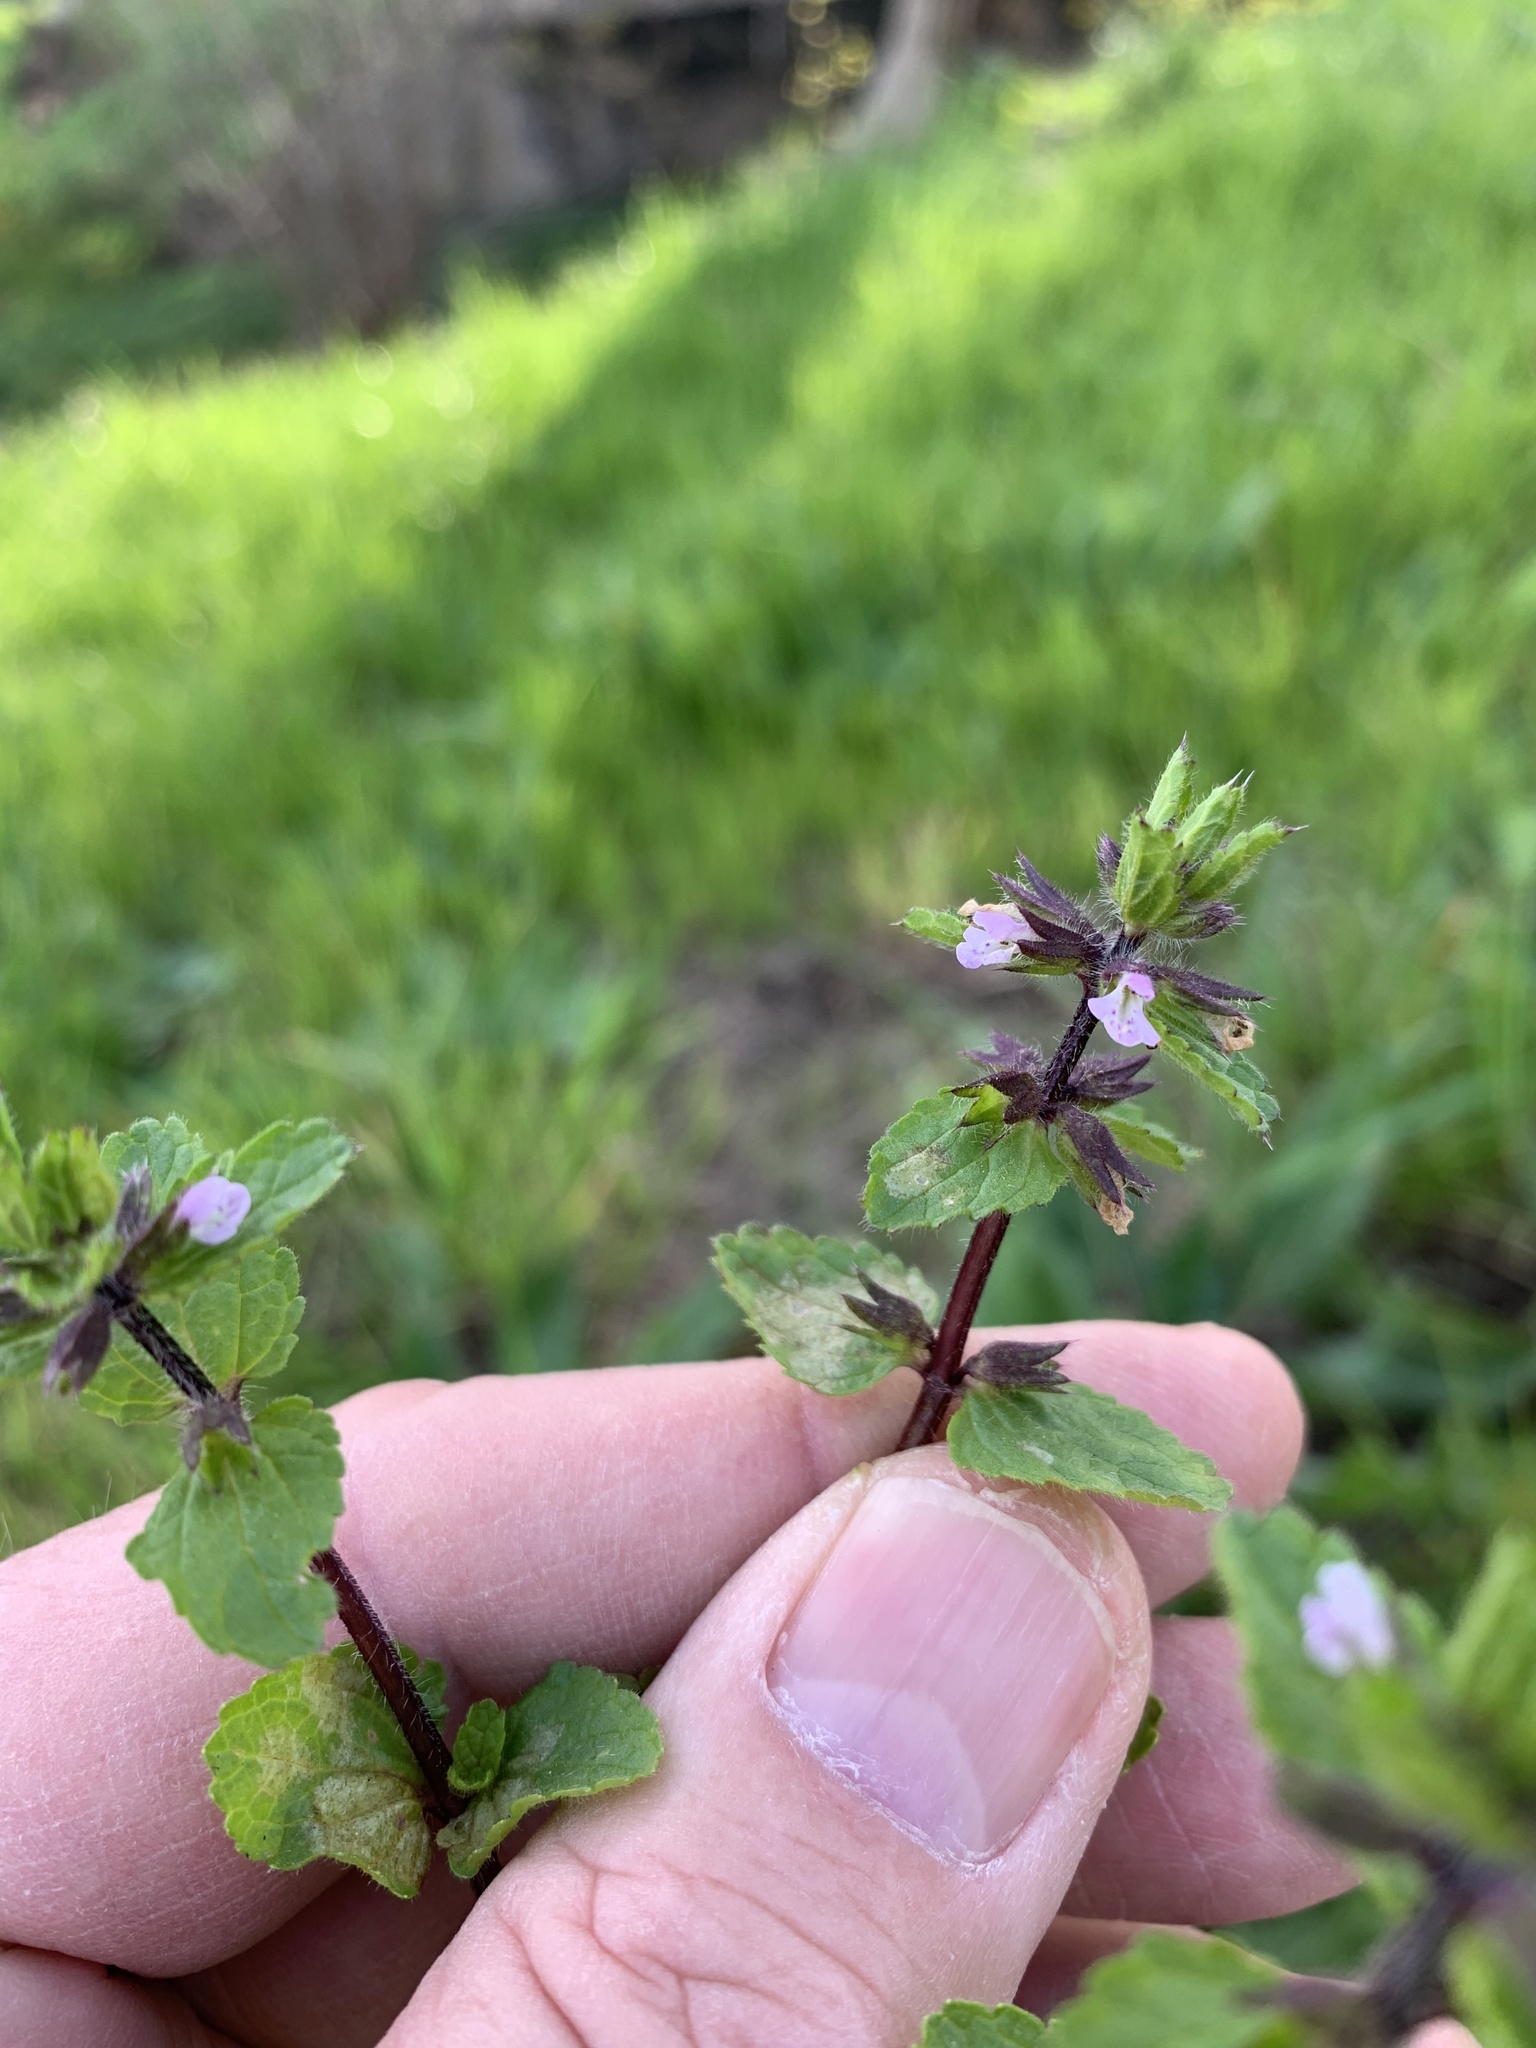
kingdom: Plantae
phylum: Tracheophyta
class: Magnoliopsida
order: Lamiales
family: Lamiaceae
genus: Stachys
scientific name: Stachys arvensis
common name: Field woundwort
